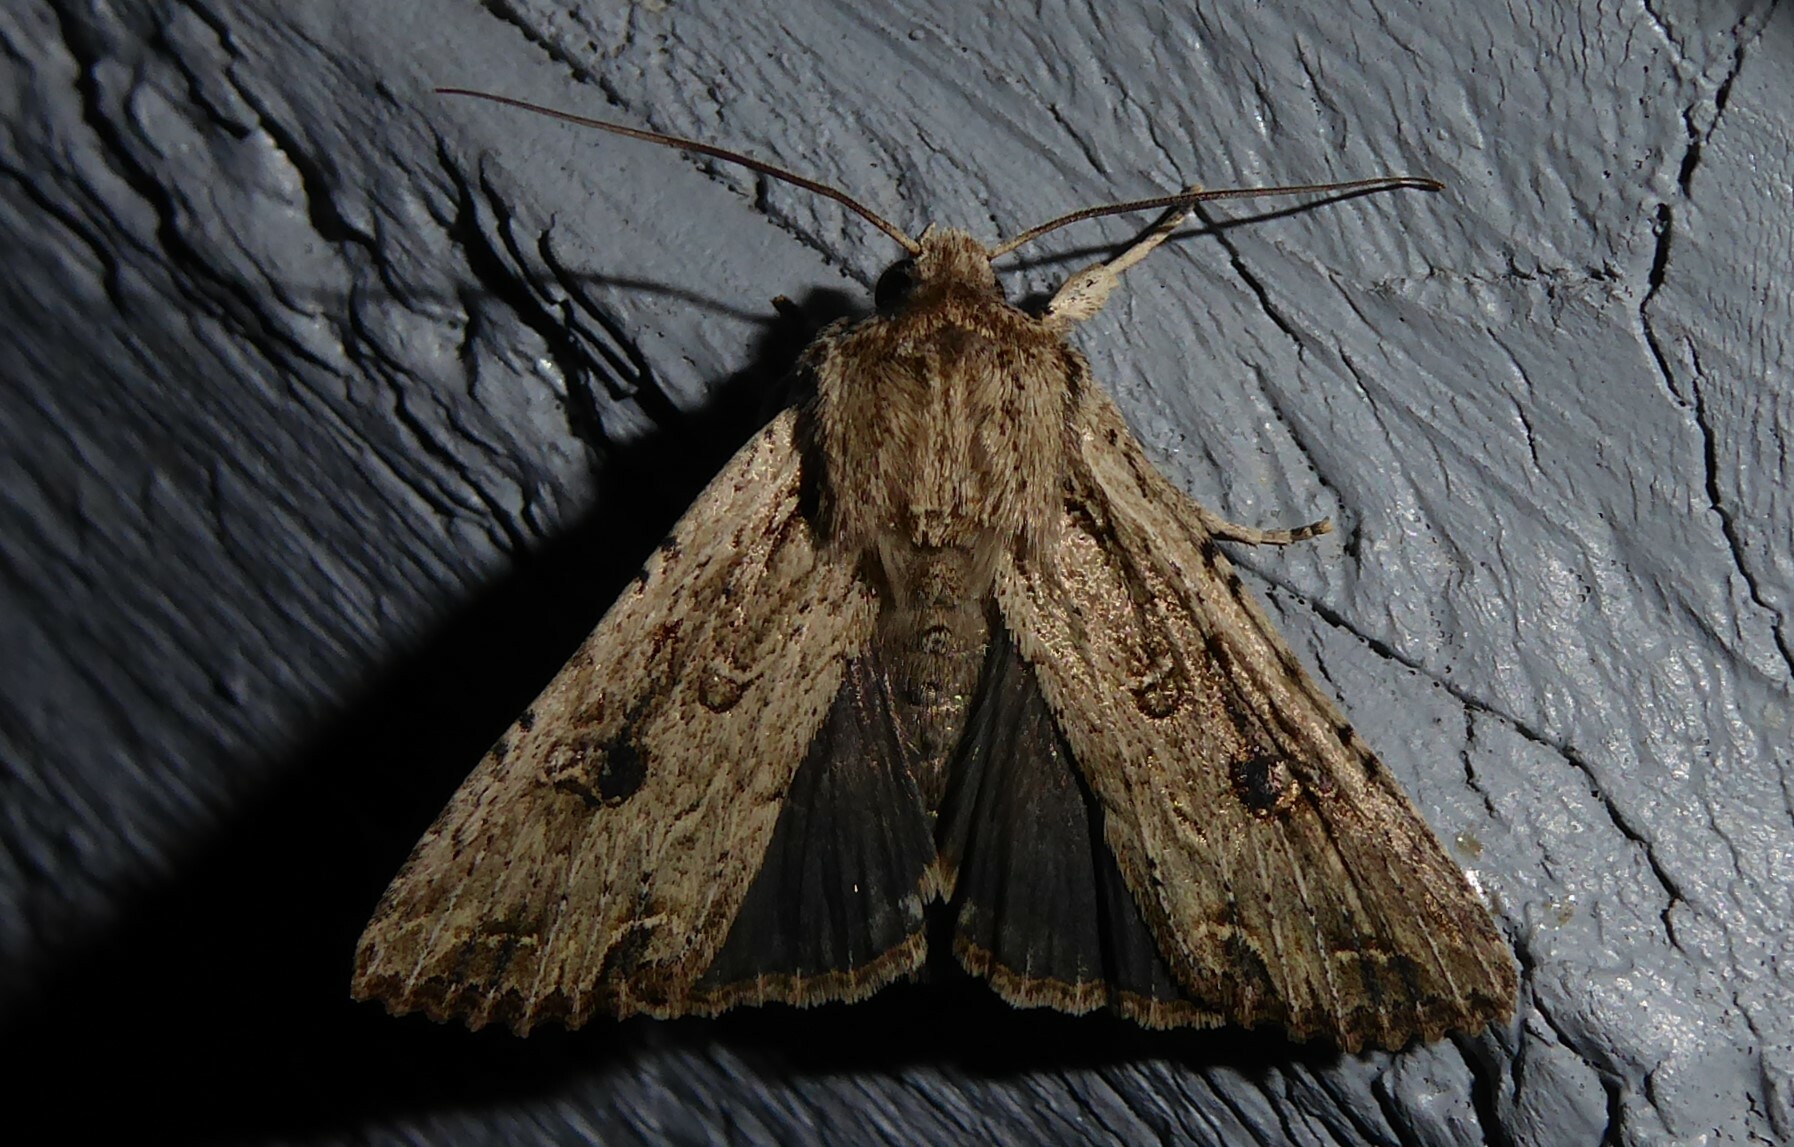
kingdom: Animalia
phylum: Arthropoda
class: Insecta
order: Lepidoptera
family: Noctuidae
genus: Ichneutica
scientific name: Ichneutica lignana
